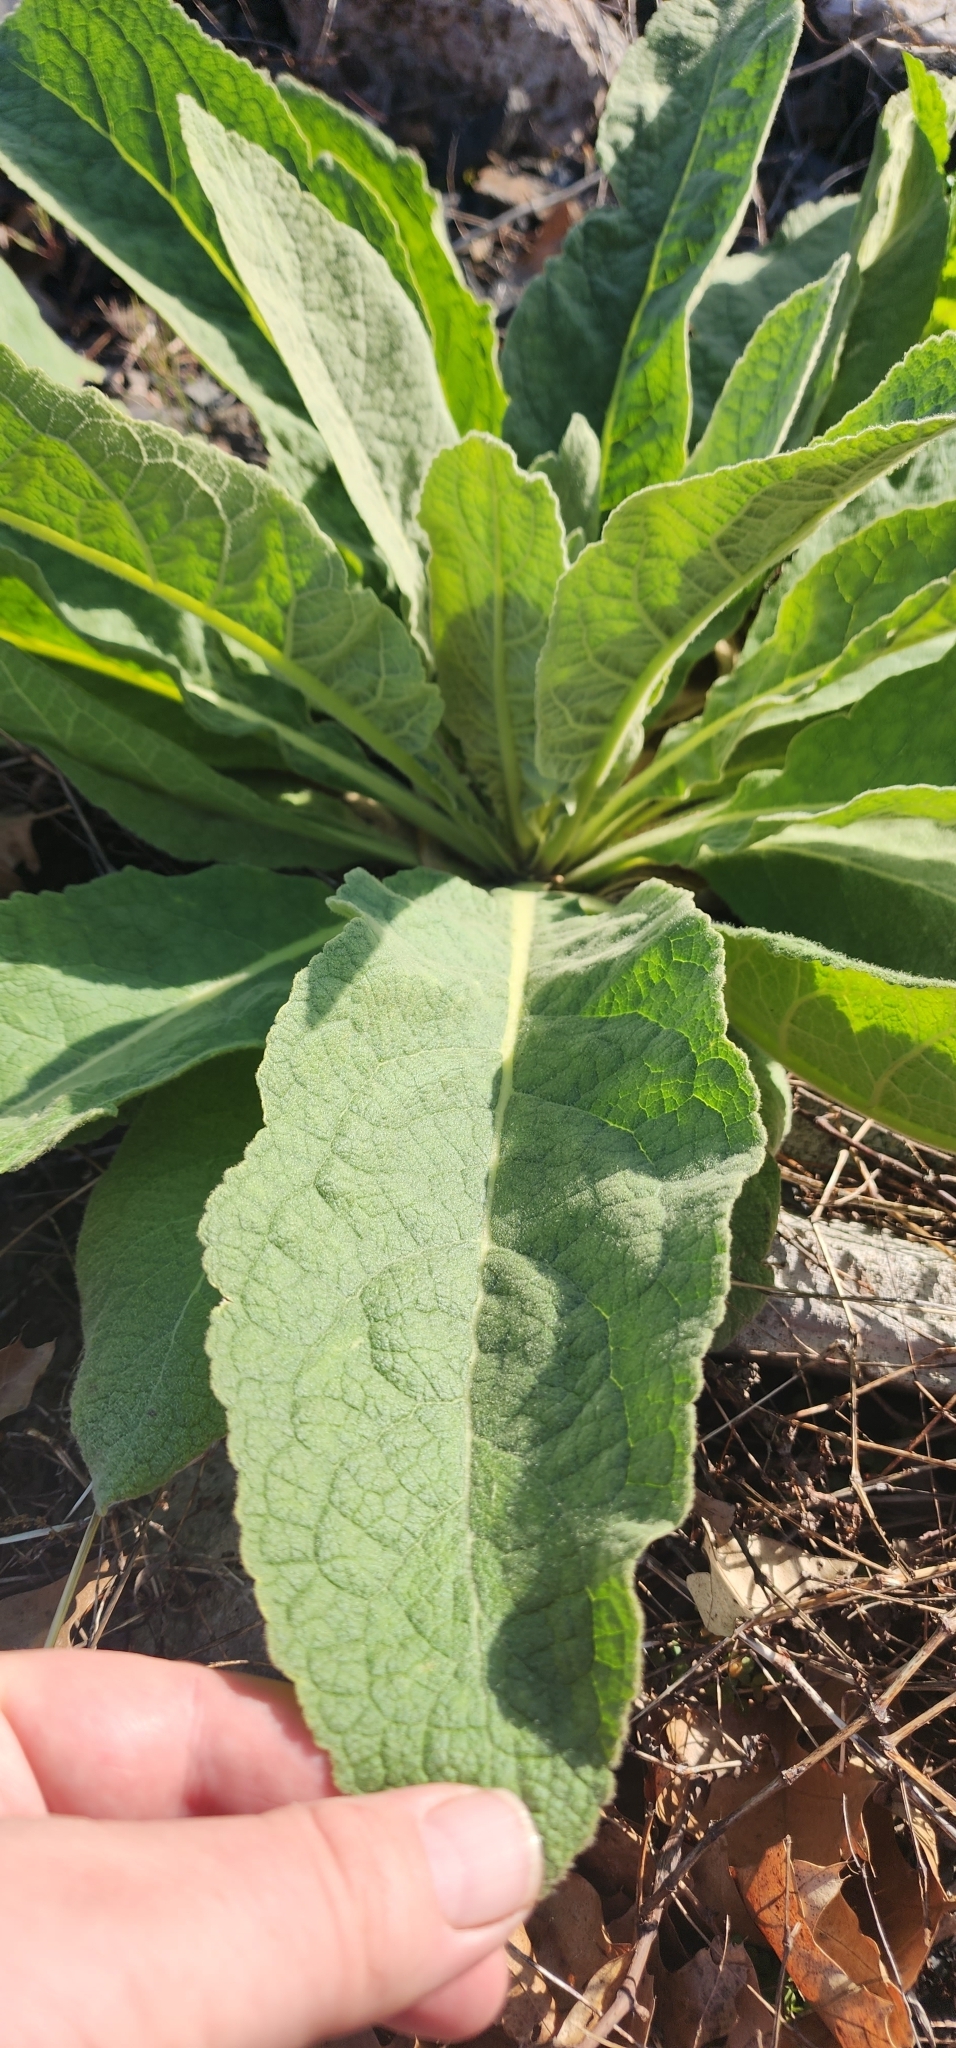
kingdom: Plantae
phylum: Tracheophyta
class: Magnoliopsida
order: Lamiales
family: Scrophulariaceae
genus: Verbascum
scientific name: Verbascum thapsus
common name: Common mullein
